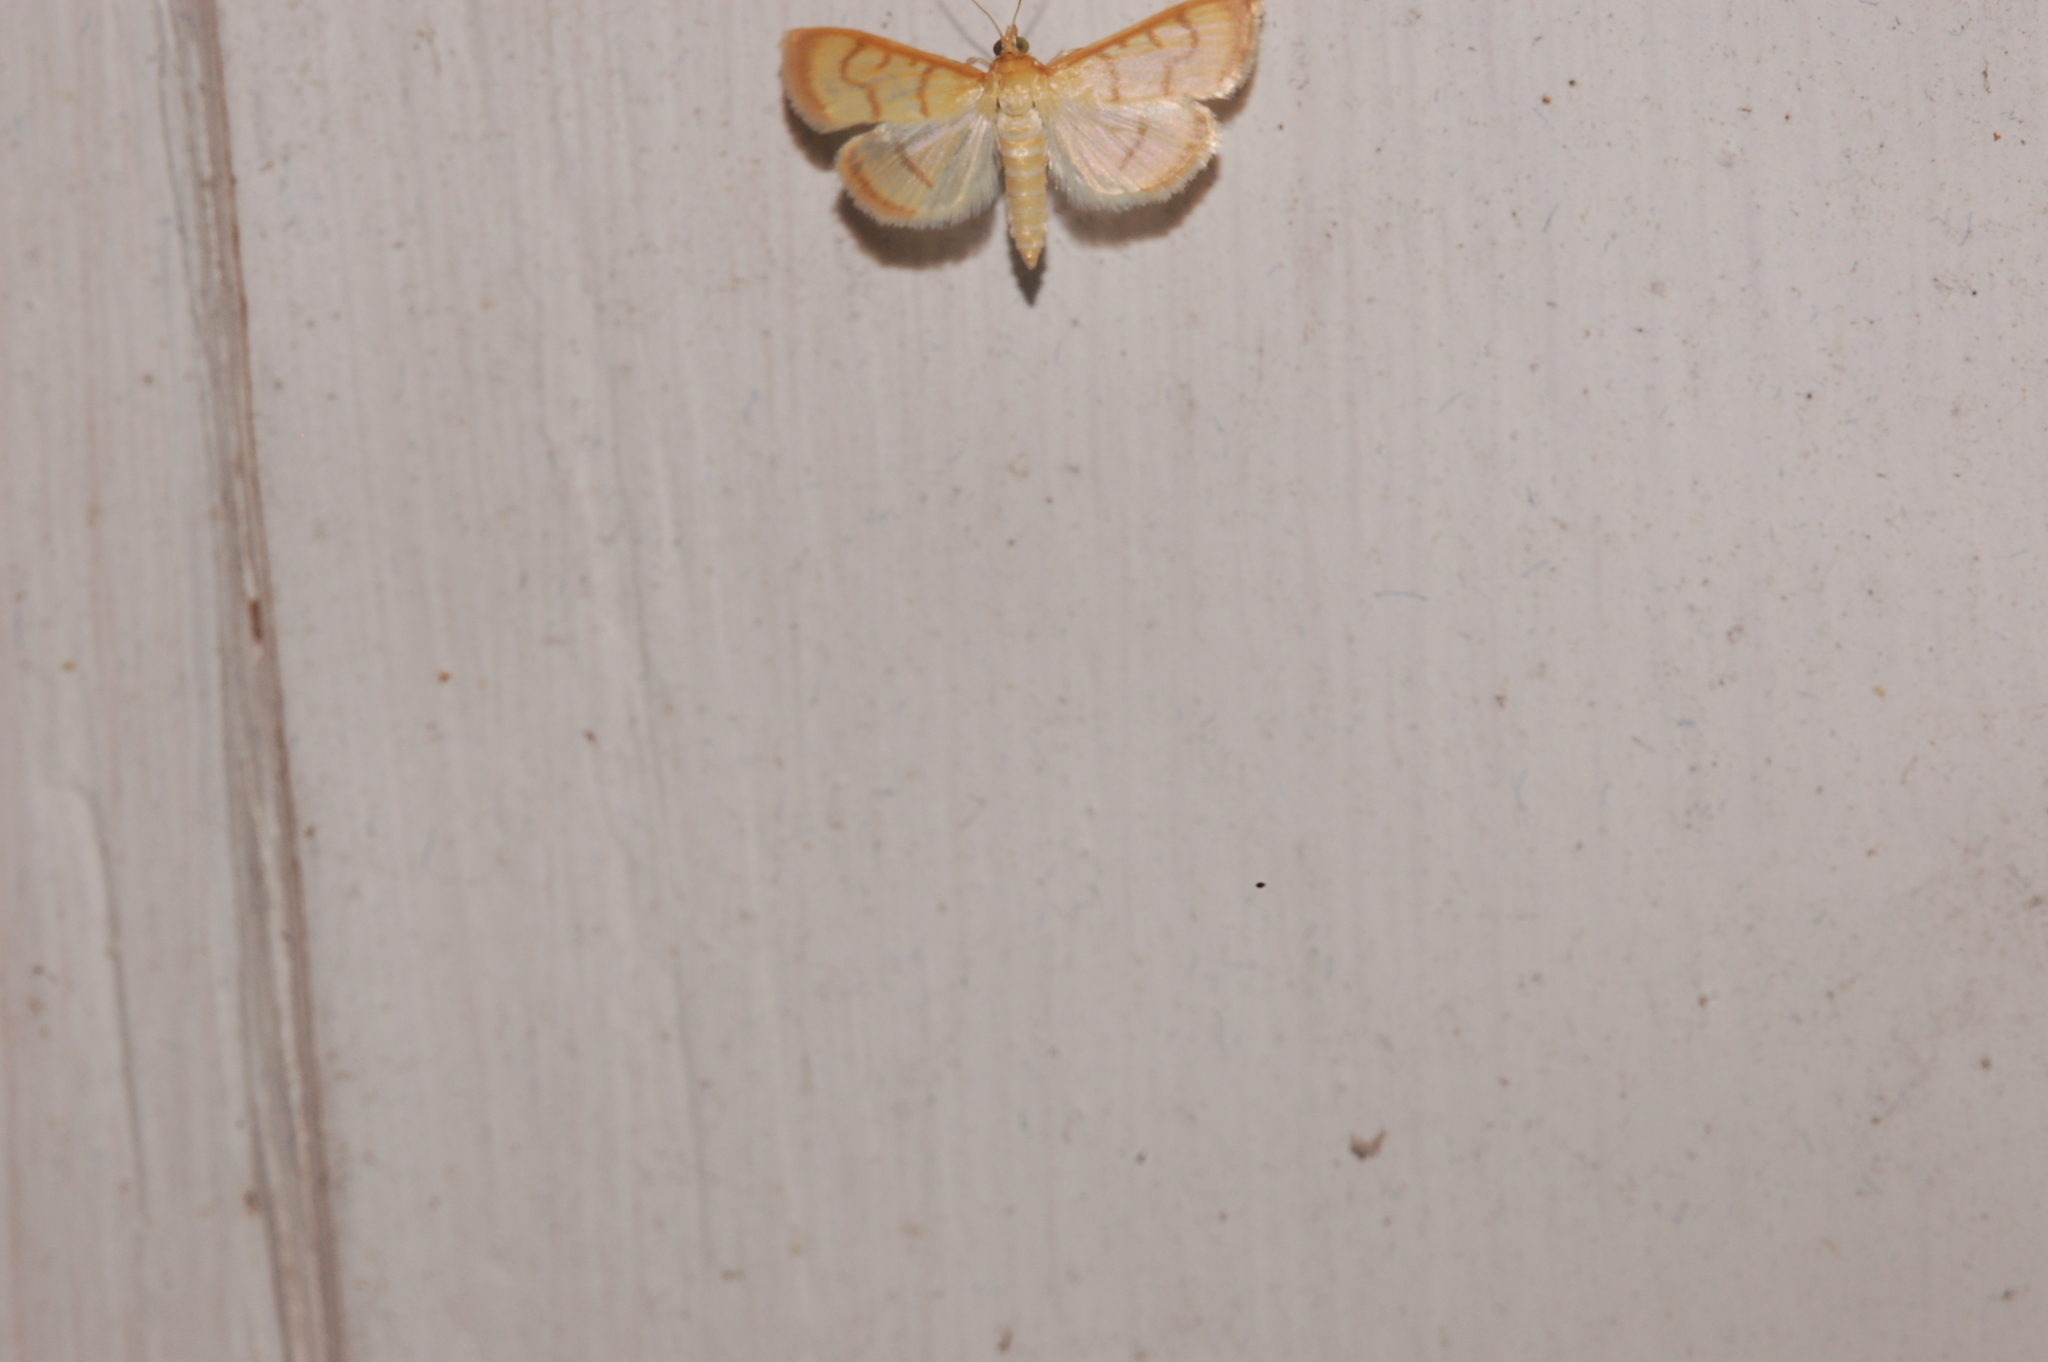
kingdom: Animalia
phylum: Arthropoda
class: Insecta
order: Lepidoptera
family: Crambidae
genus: Neohelvibotys
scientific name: Neohelvibotys neohelvialis
